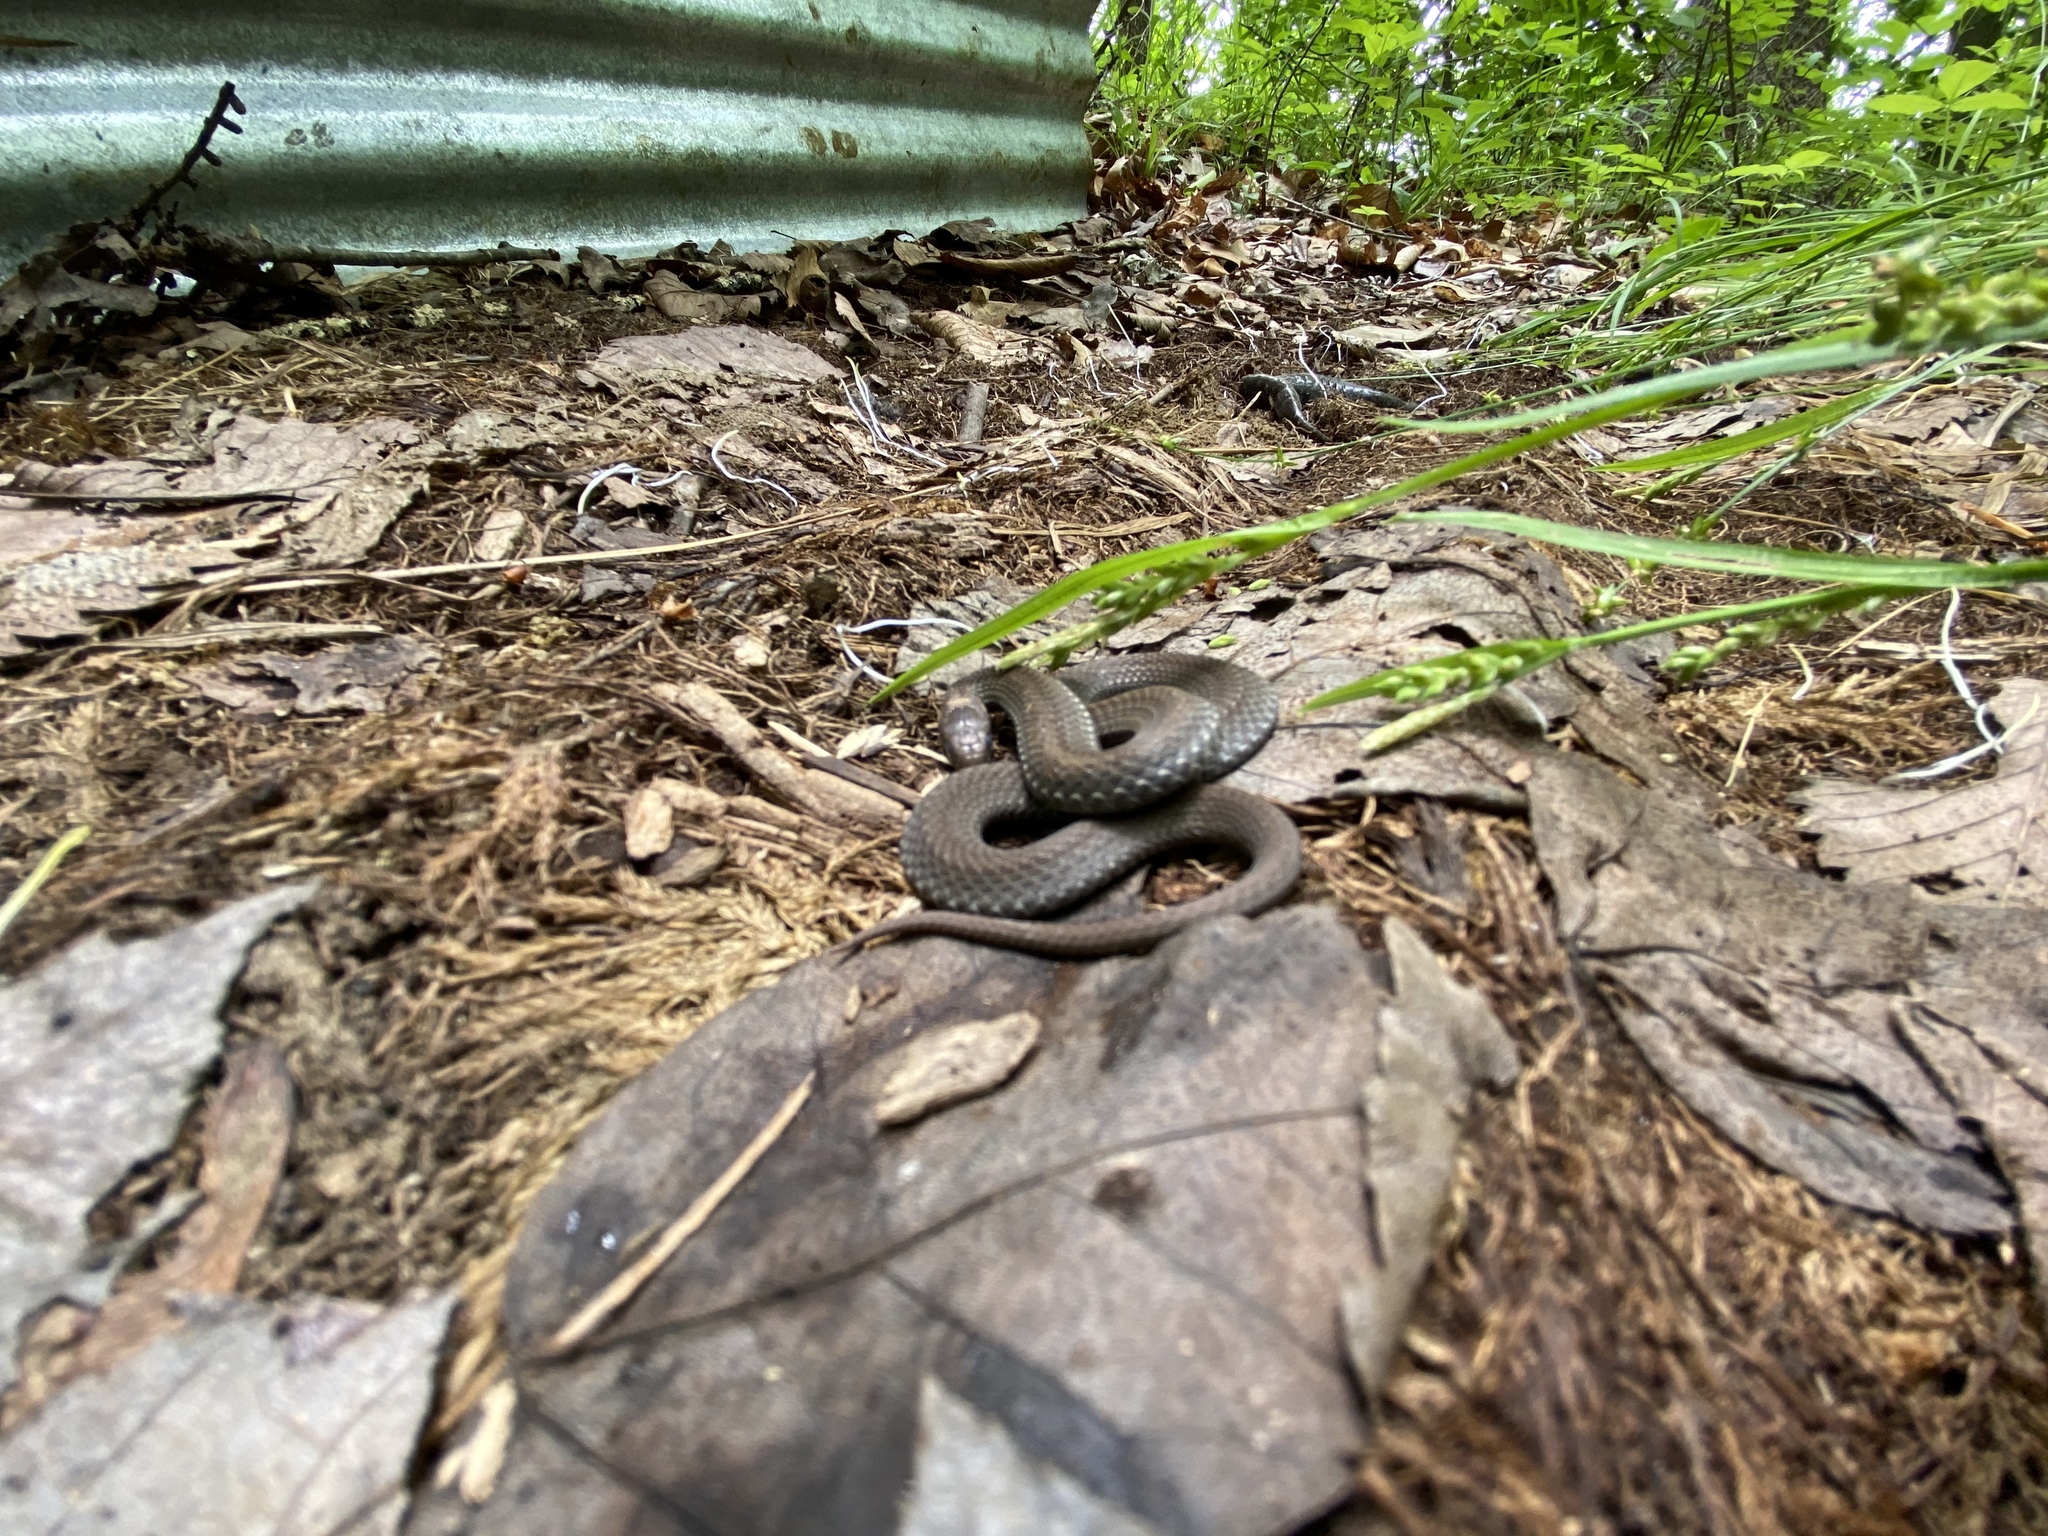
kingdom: Animalia
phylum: Chordata
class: Squamata
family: Colubridae
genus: Storeria
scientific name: Storeria occipitomaculata
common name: Redbelly snake
